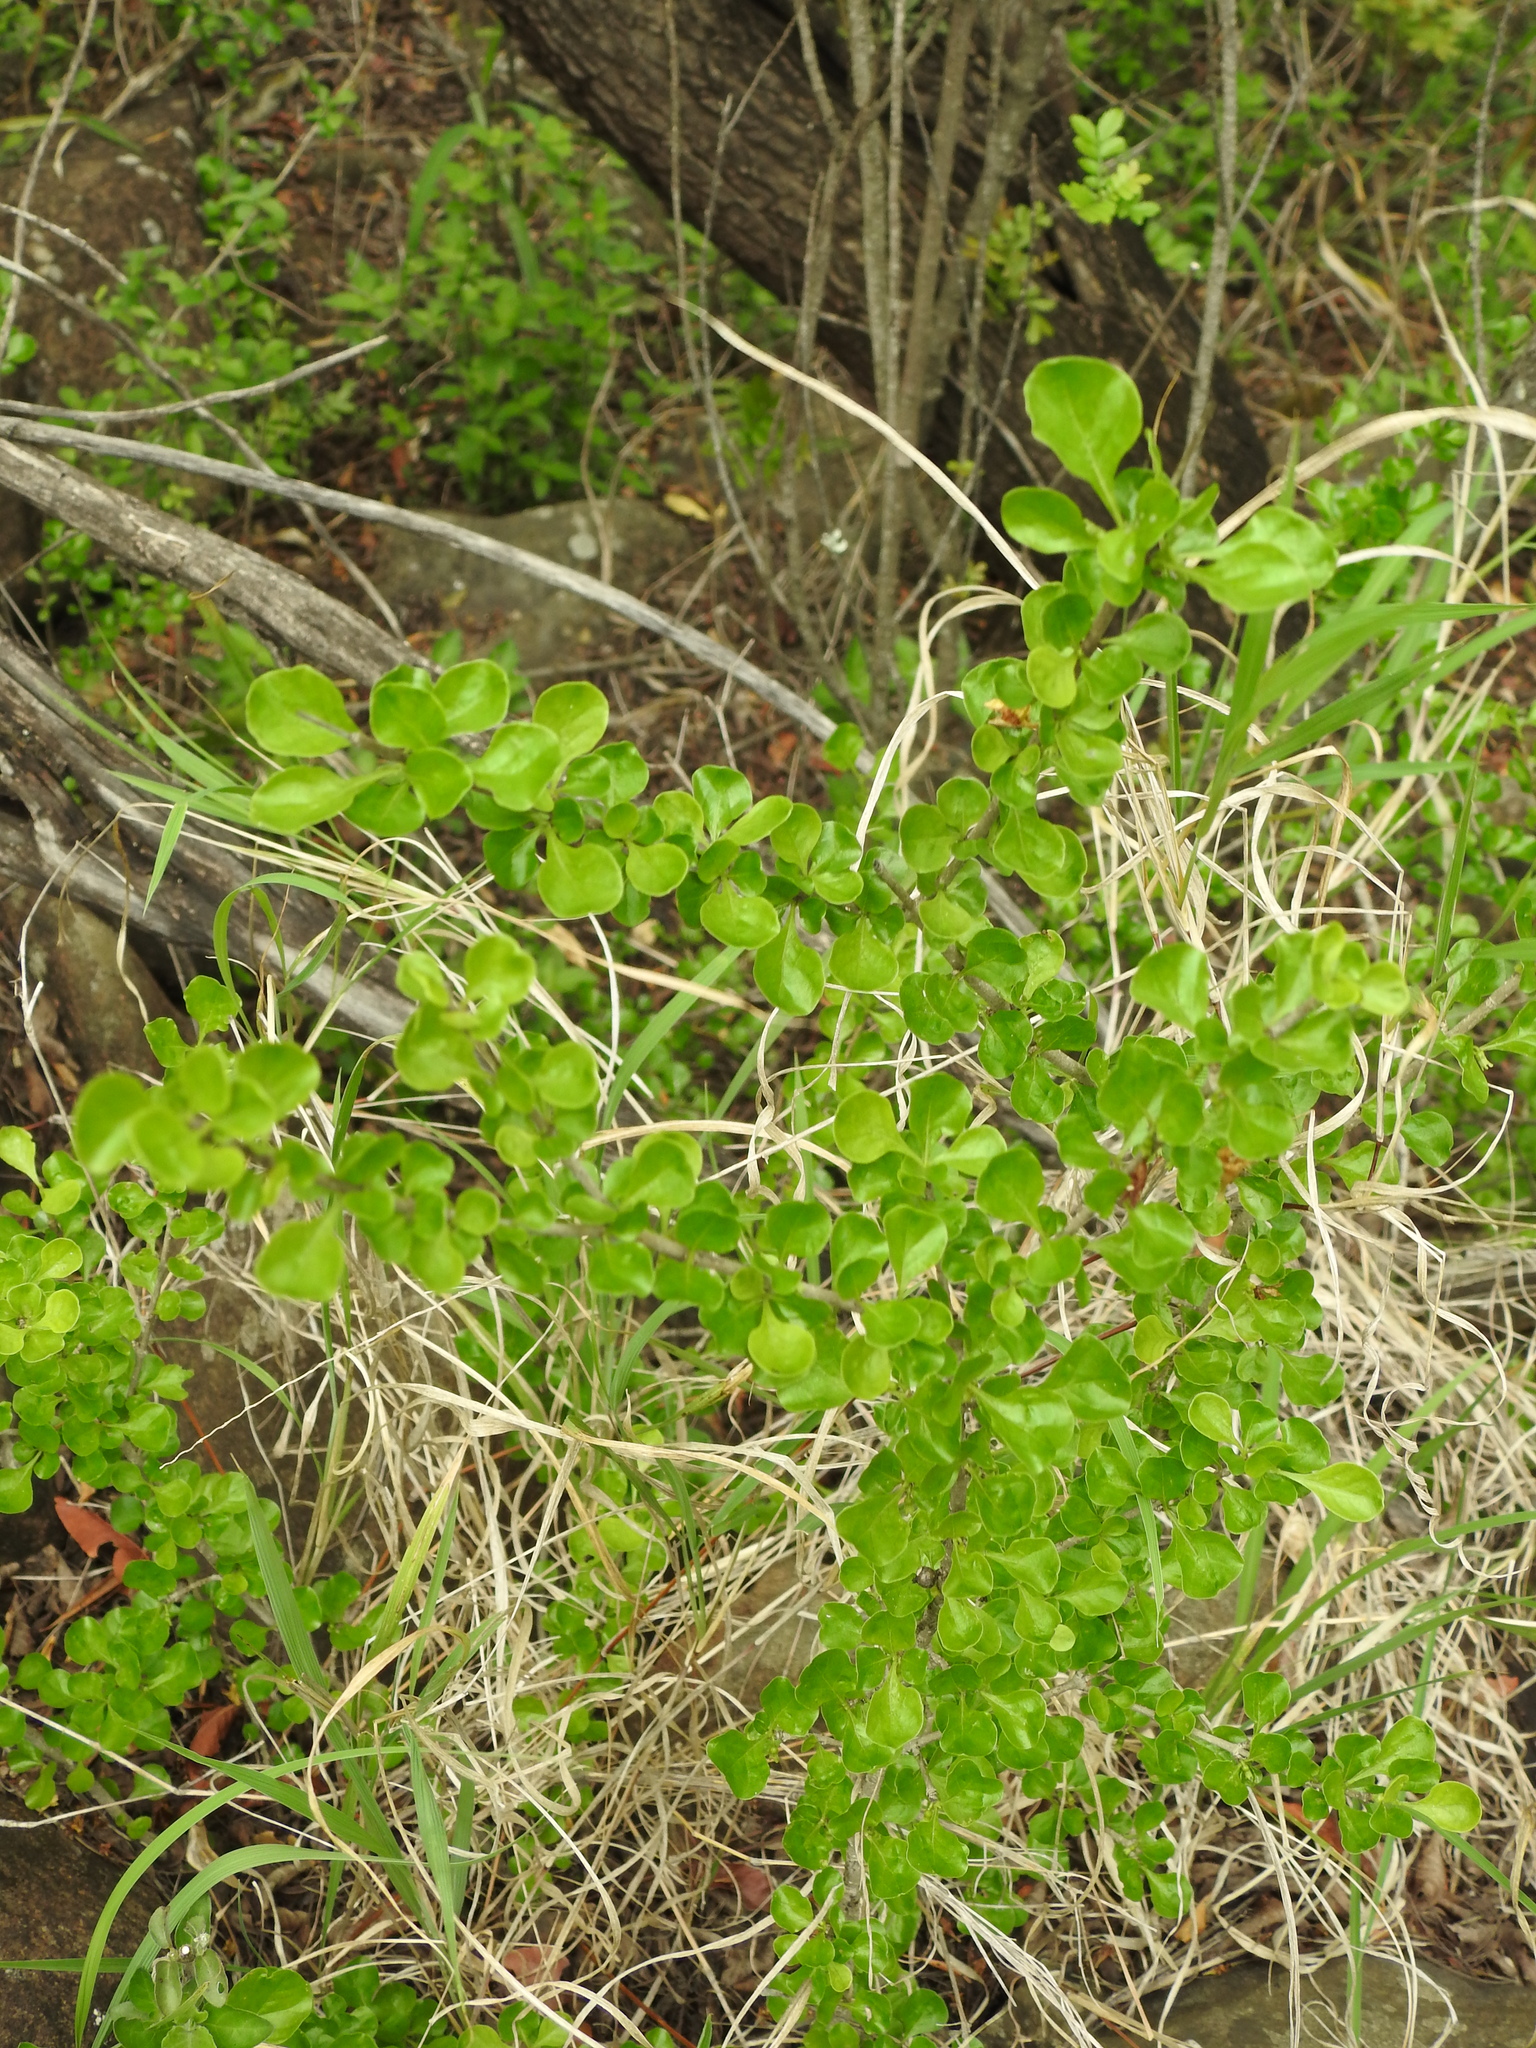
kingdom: Plantae
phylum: Tracheophyta
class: Magnoliopsida
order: Gentianales
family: Rubiaceae
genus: Coddia
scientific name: Coddia rudis
